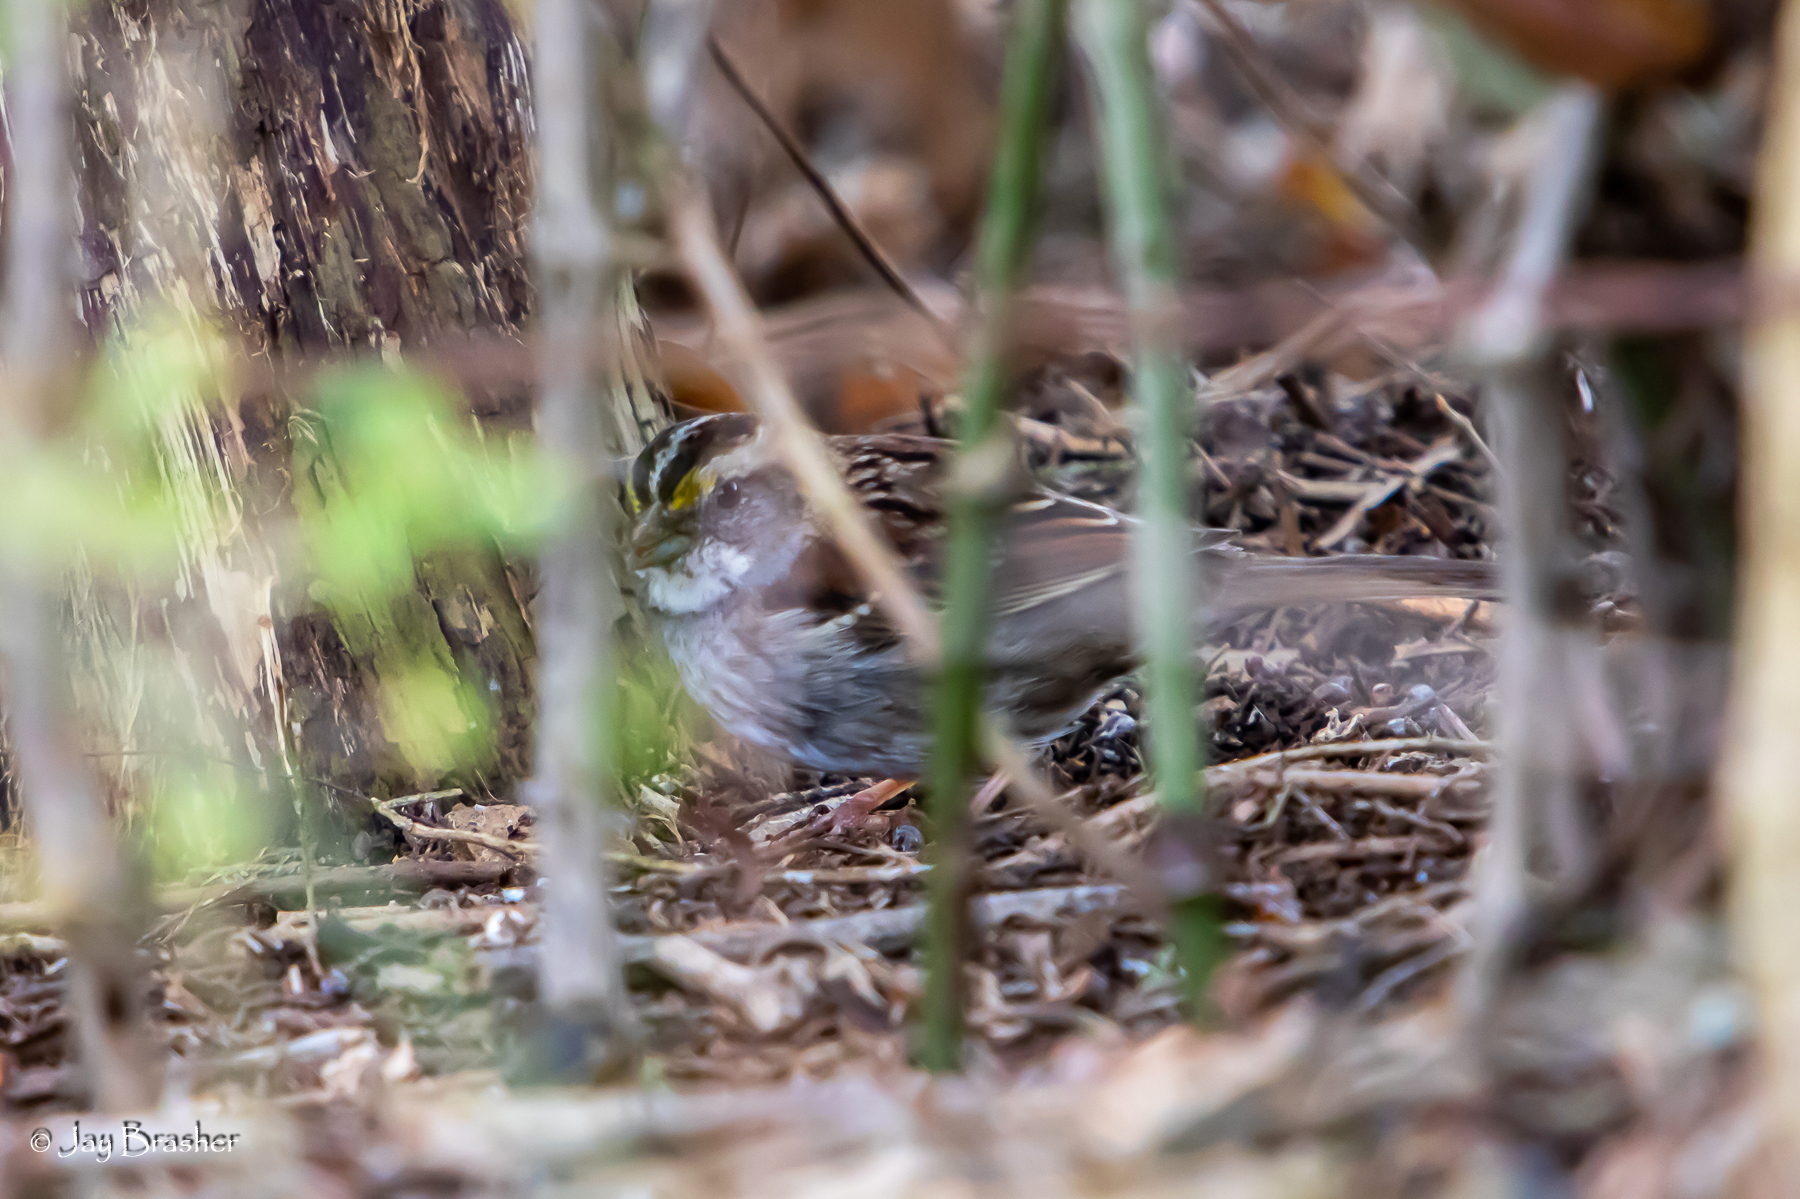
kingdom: Animalia
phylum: Chordata
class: Aves
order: Passeriformes
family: Passerellidae
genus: Zonotrichia
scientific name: Zonotrichia albicollis
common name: White-throated sparrow
